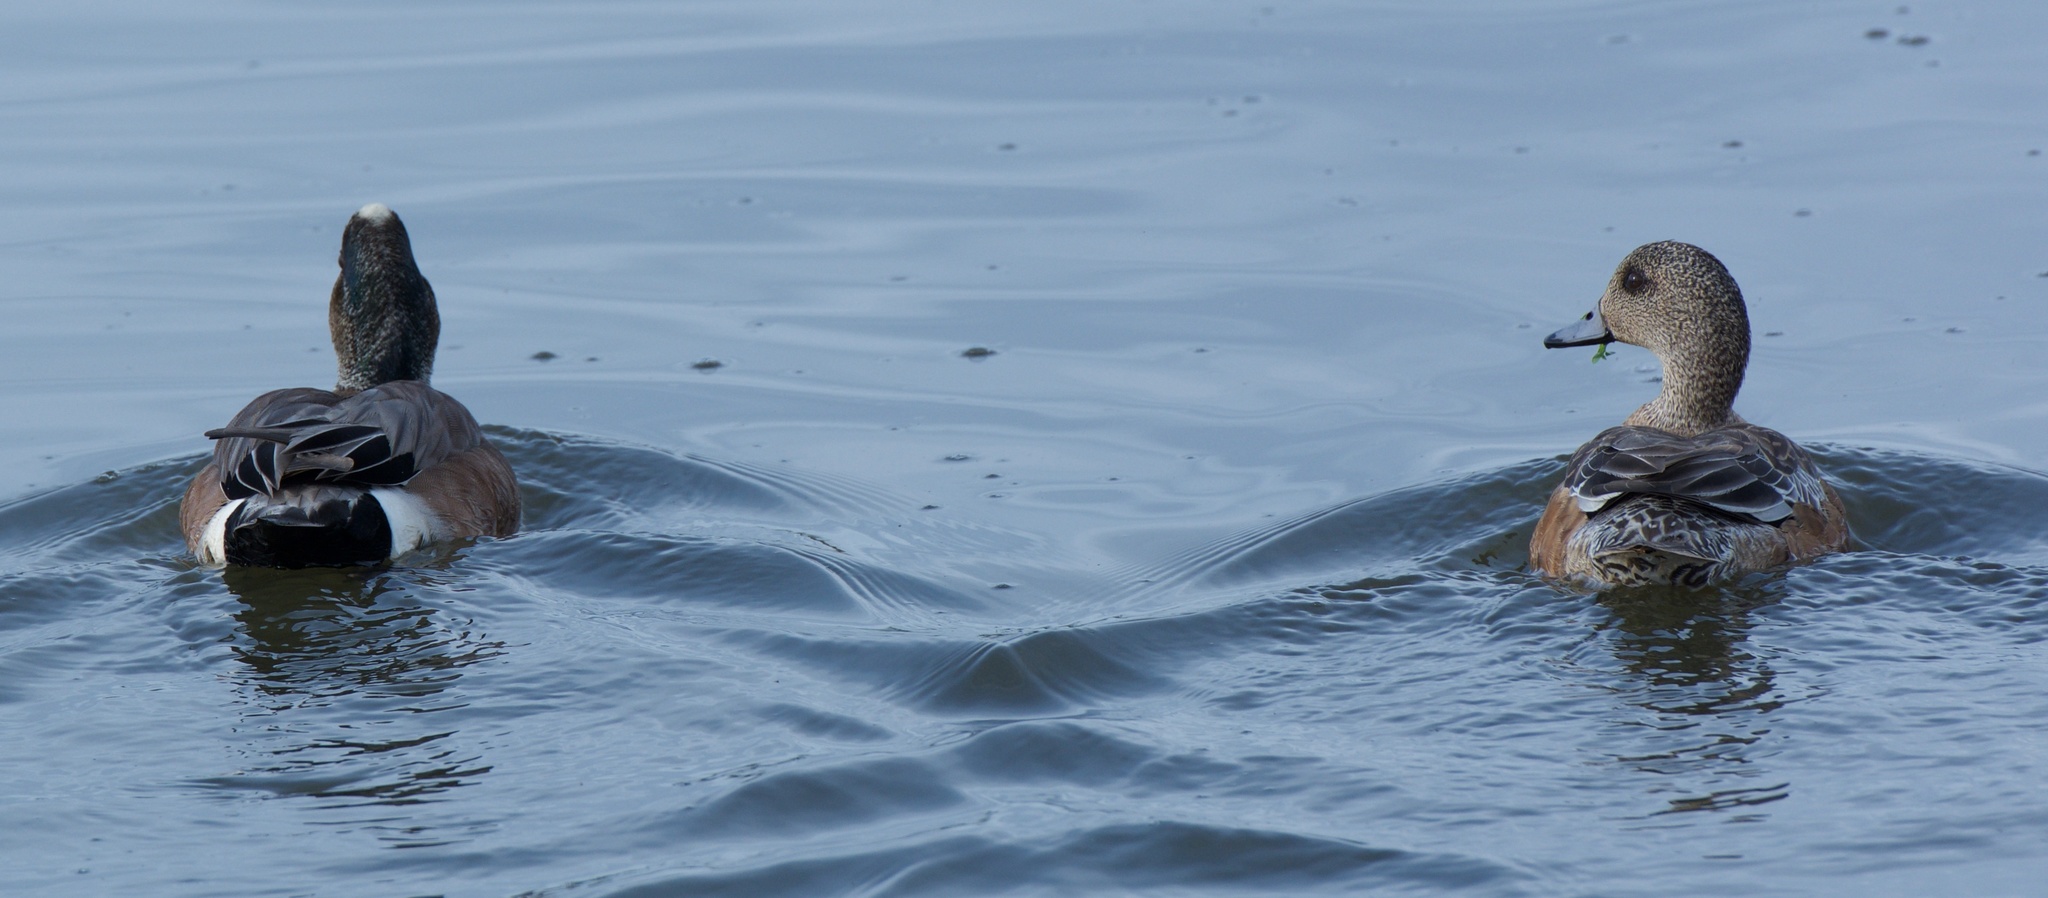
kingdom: Animalia
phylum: Chordata
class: Aves
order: Anseriformes
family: Anatidae
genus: Mareca
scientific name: Mareca americana
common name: American wigeon
